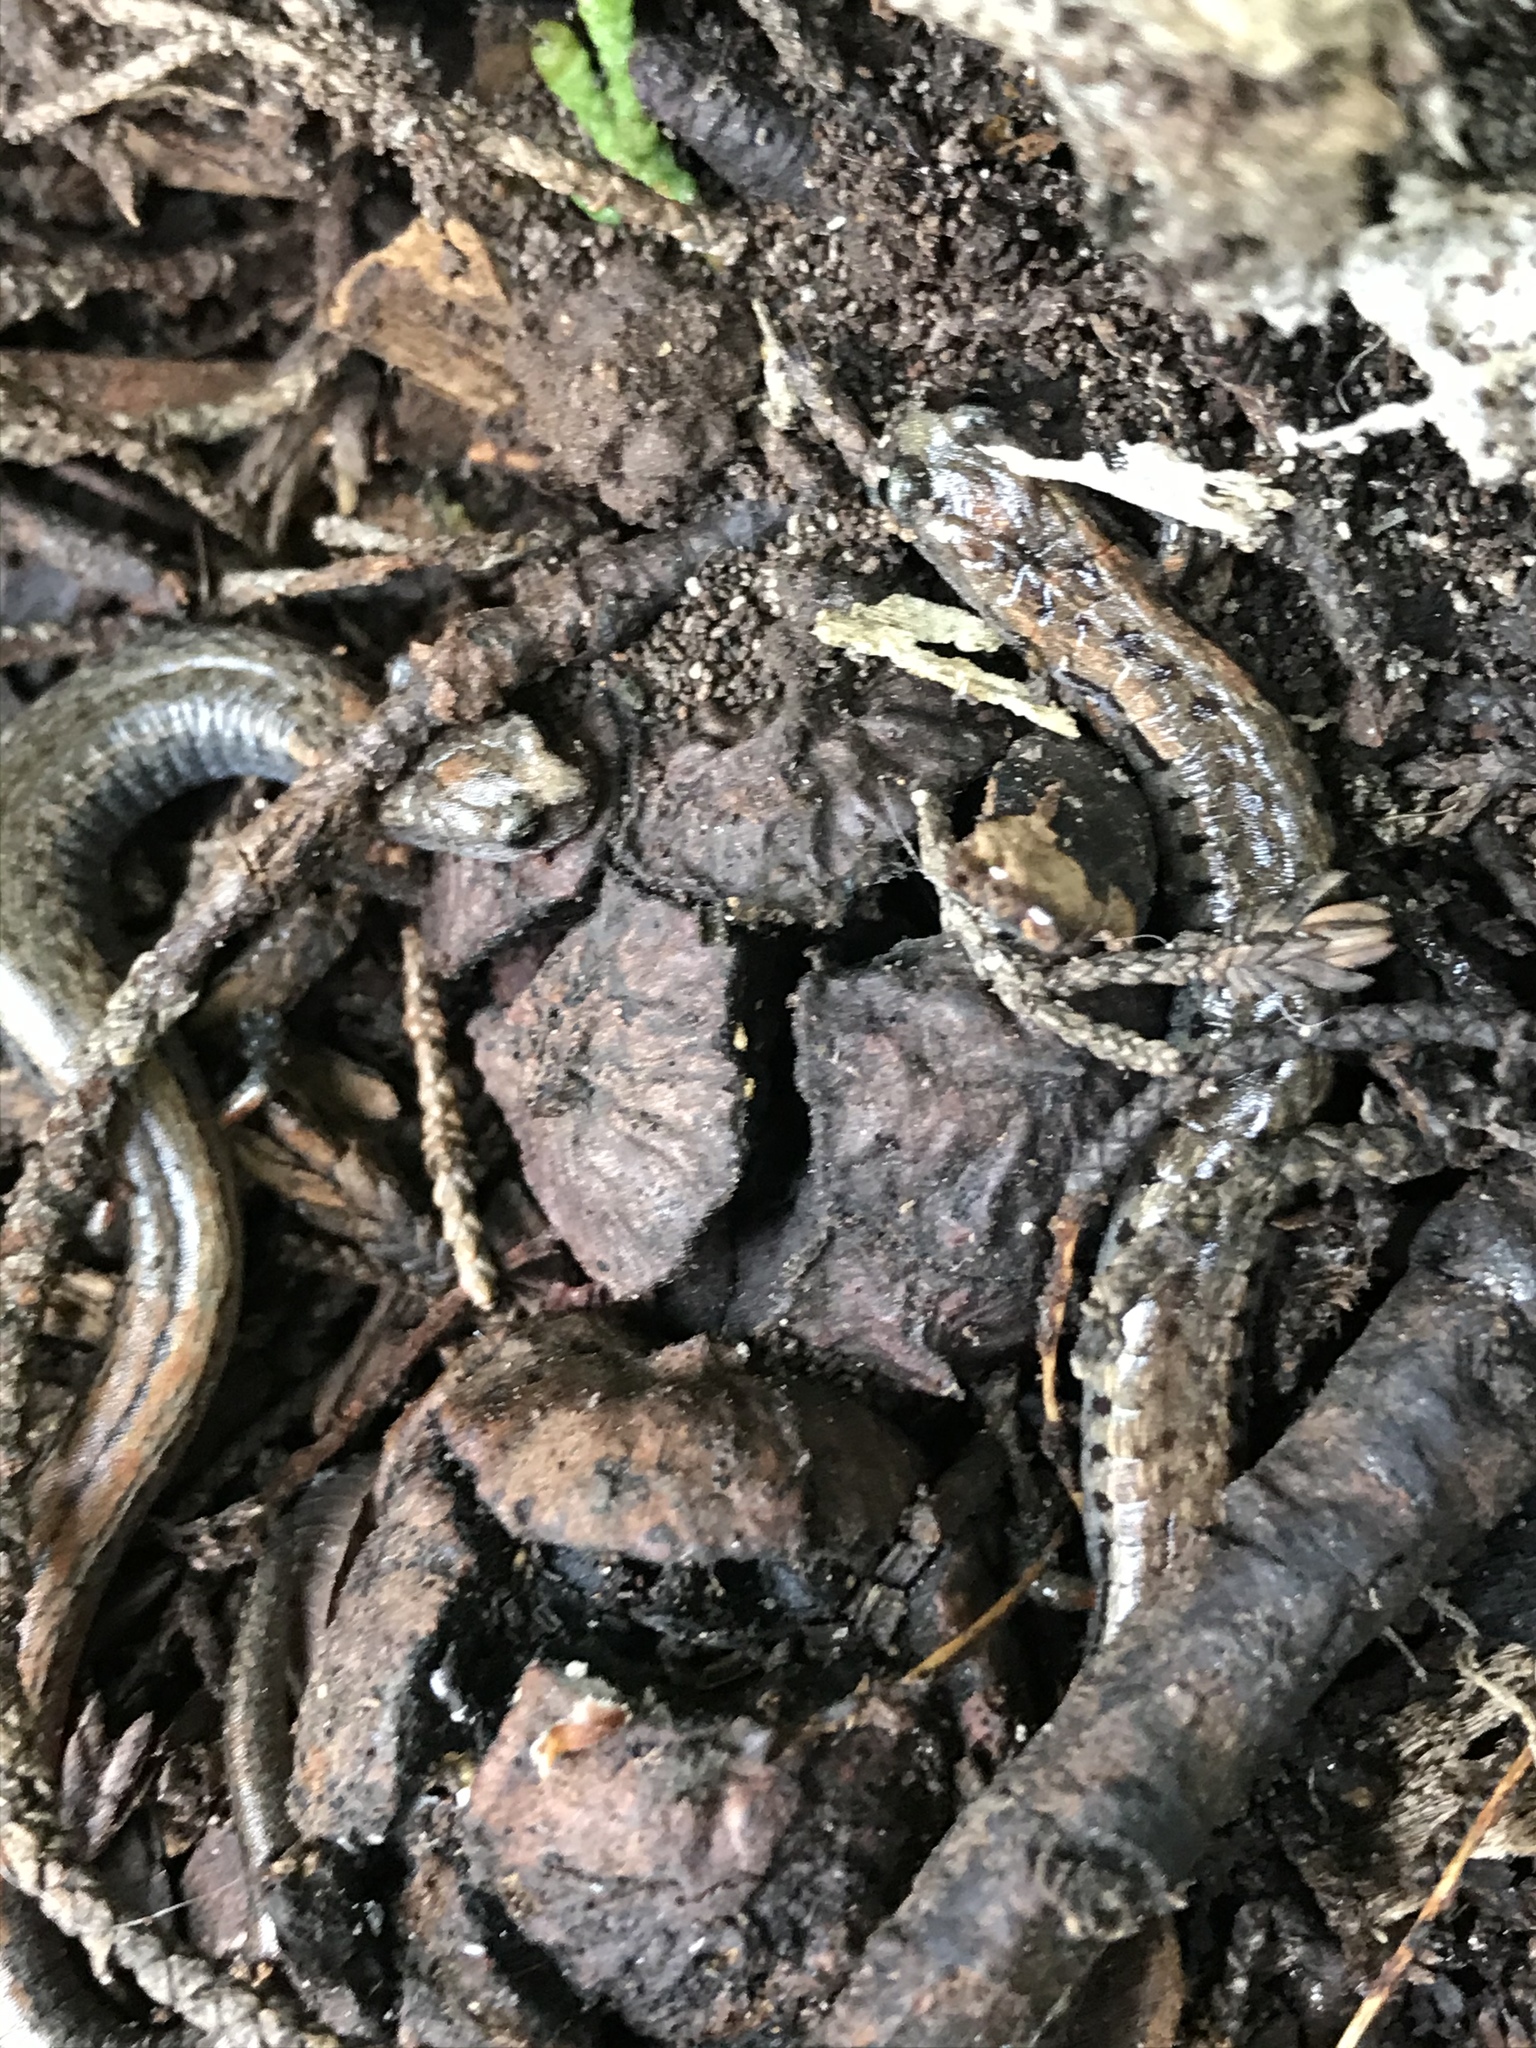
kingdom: Animalia
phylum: Chordata
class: Amphibia
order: Caudata
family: Plethodontidae
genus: Batrachoseps
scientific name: Batrachoseps attenuatus
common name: California slender salamander
